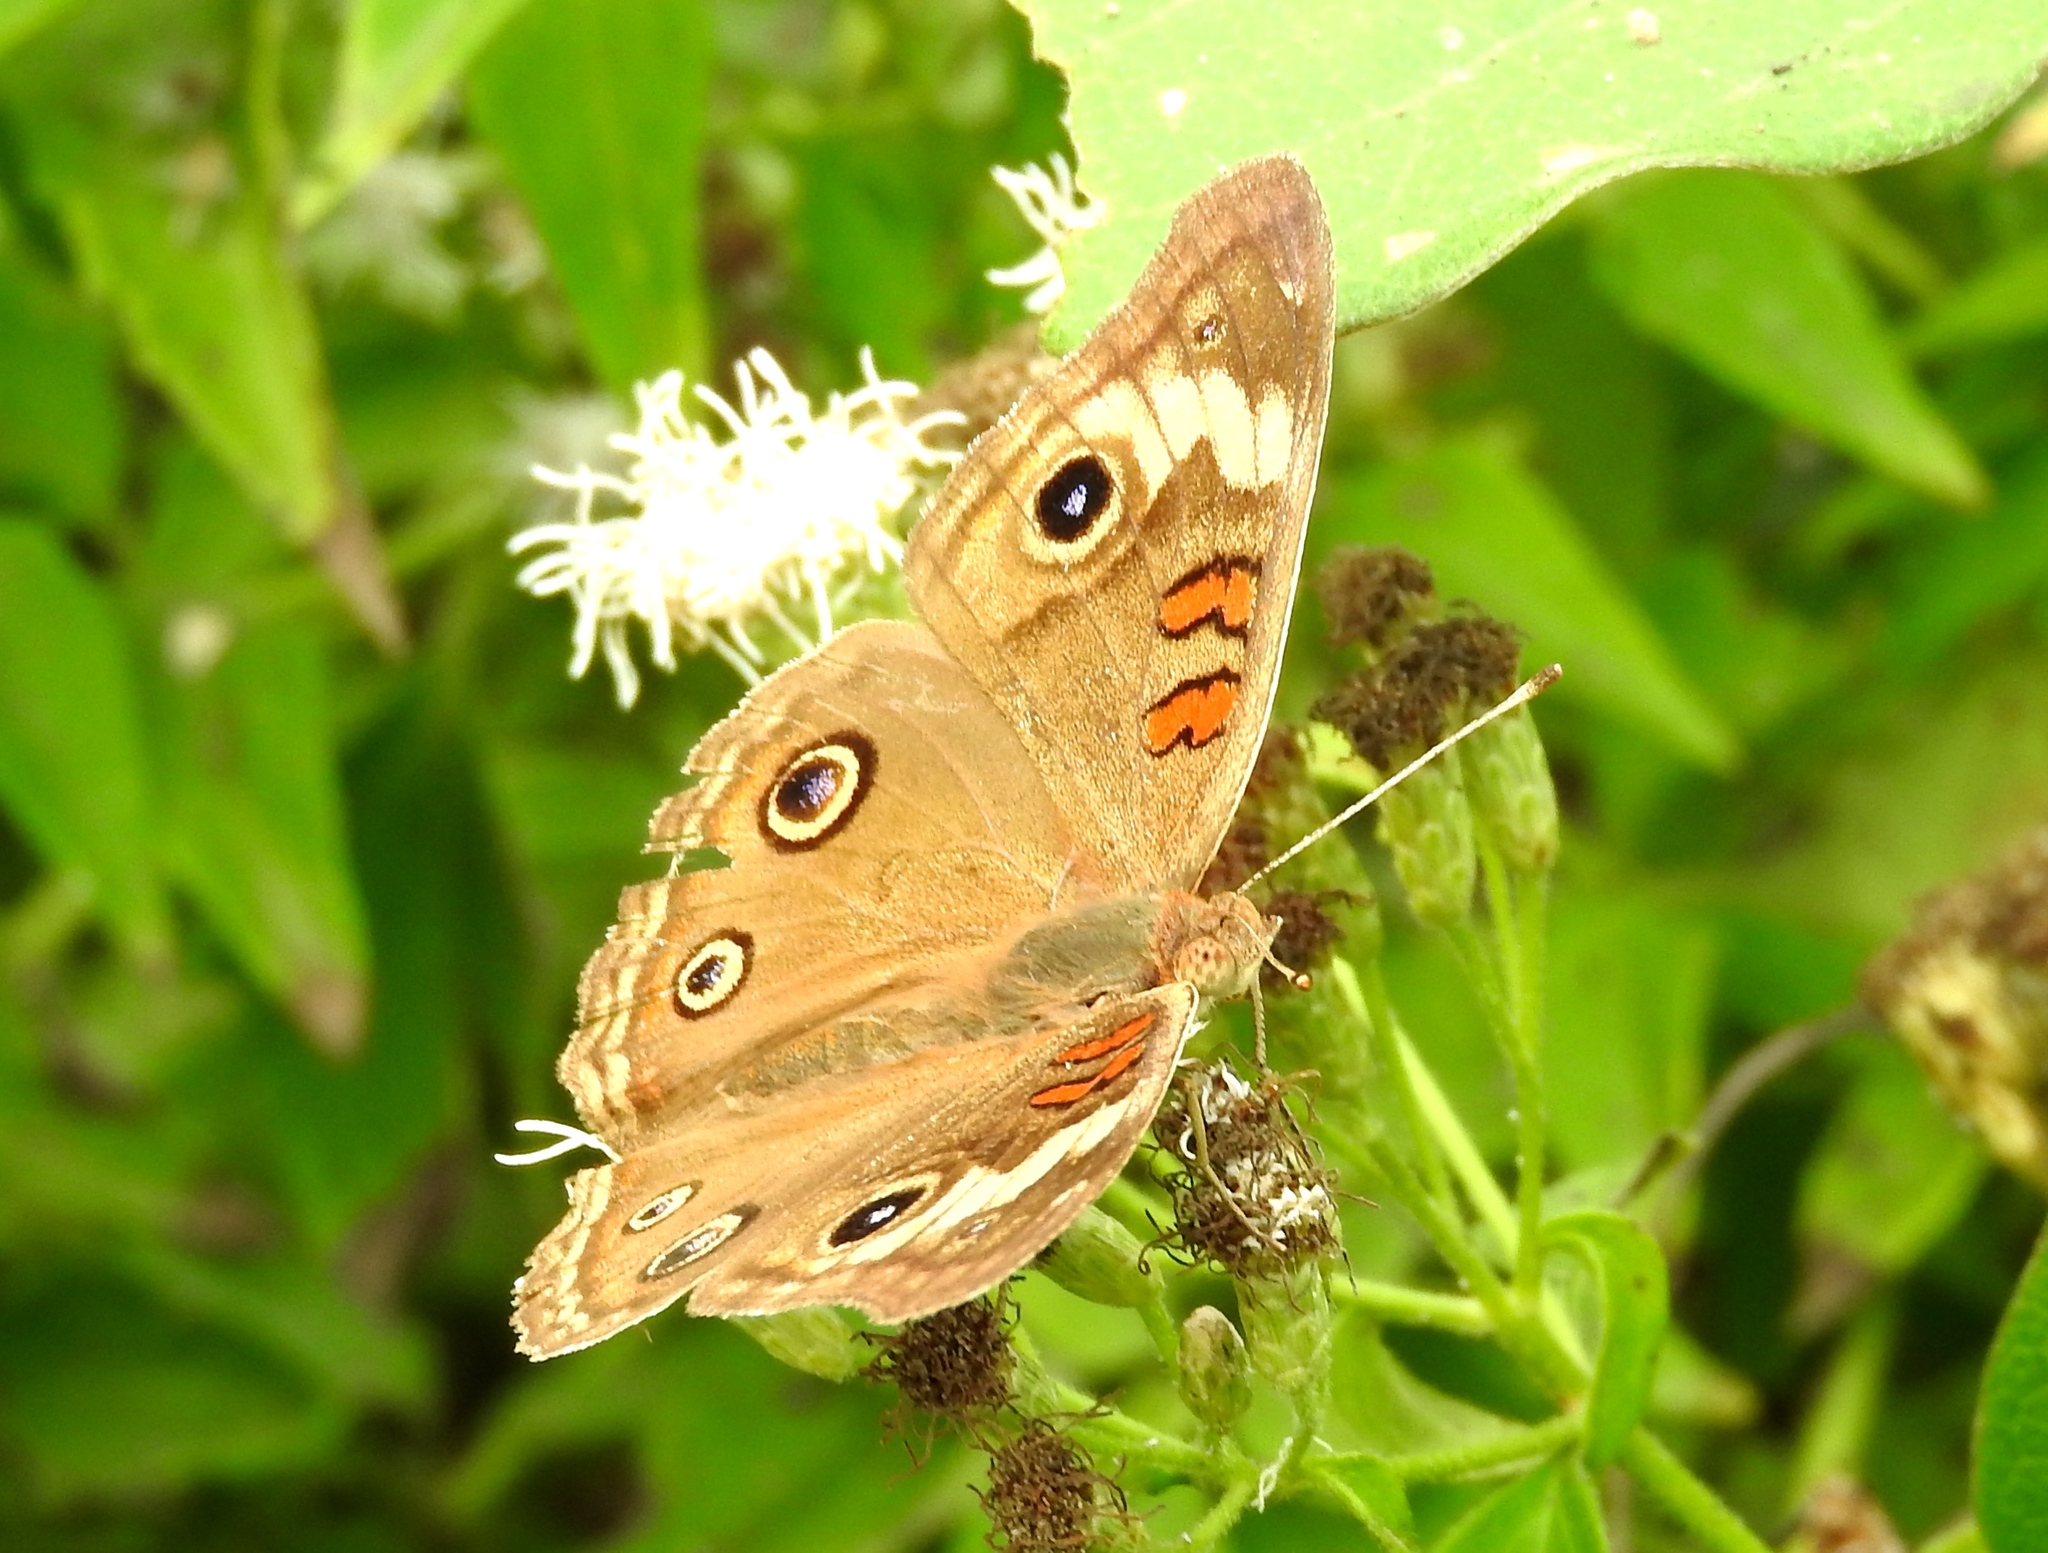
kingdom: Animalia
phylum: Arthropoda
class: Insecta
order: Lepidoptera
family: Nymphalidae
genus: Junonia
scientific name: Junonia coenia
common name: Common buckeye
